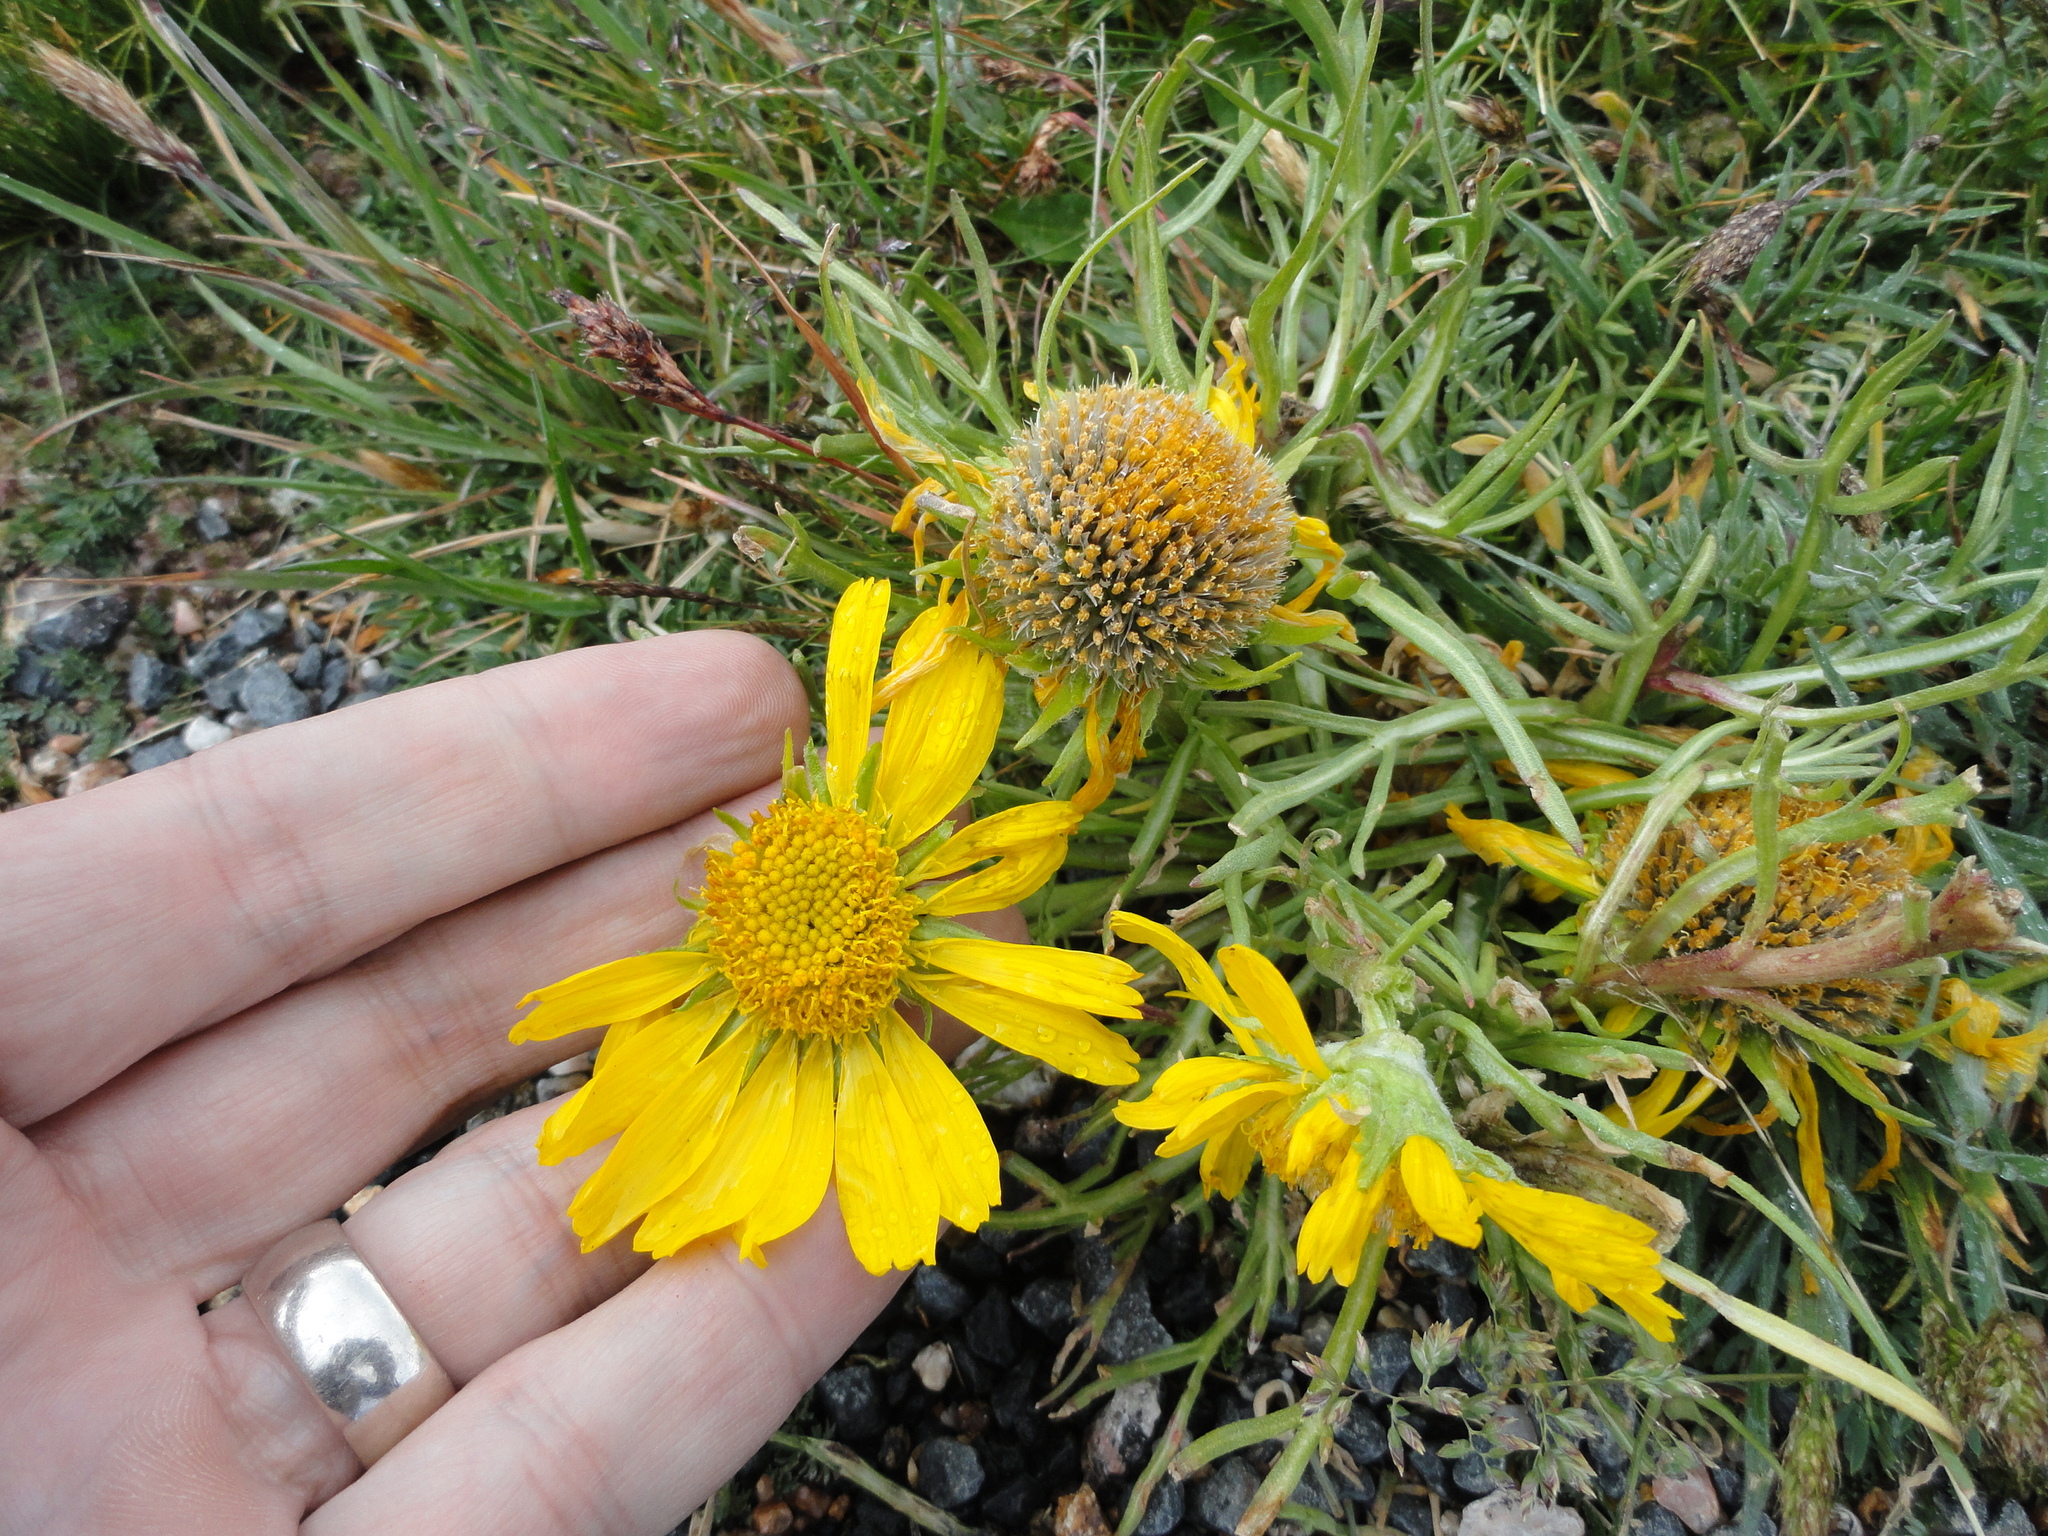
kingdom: Plantae
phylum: Tracheophyta
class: Magnoliopsida
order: Asterales
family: Asteraceae
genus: Hymenoxys
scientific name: Hymenoxys grandiflora
